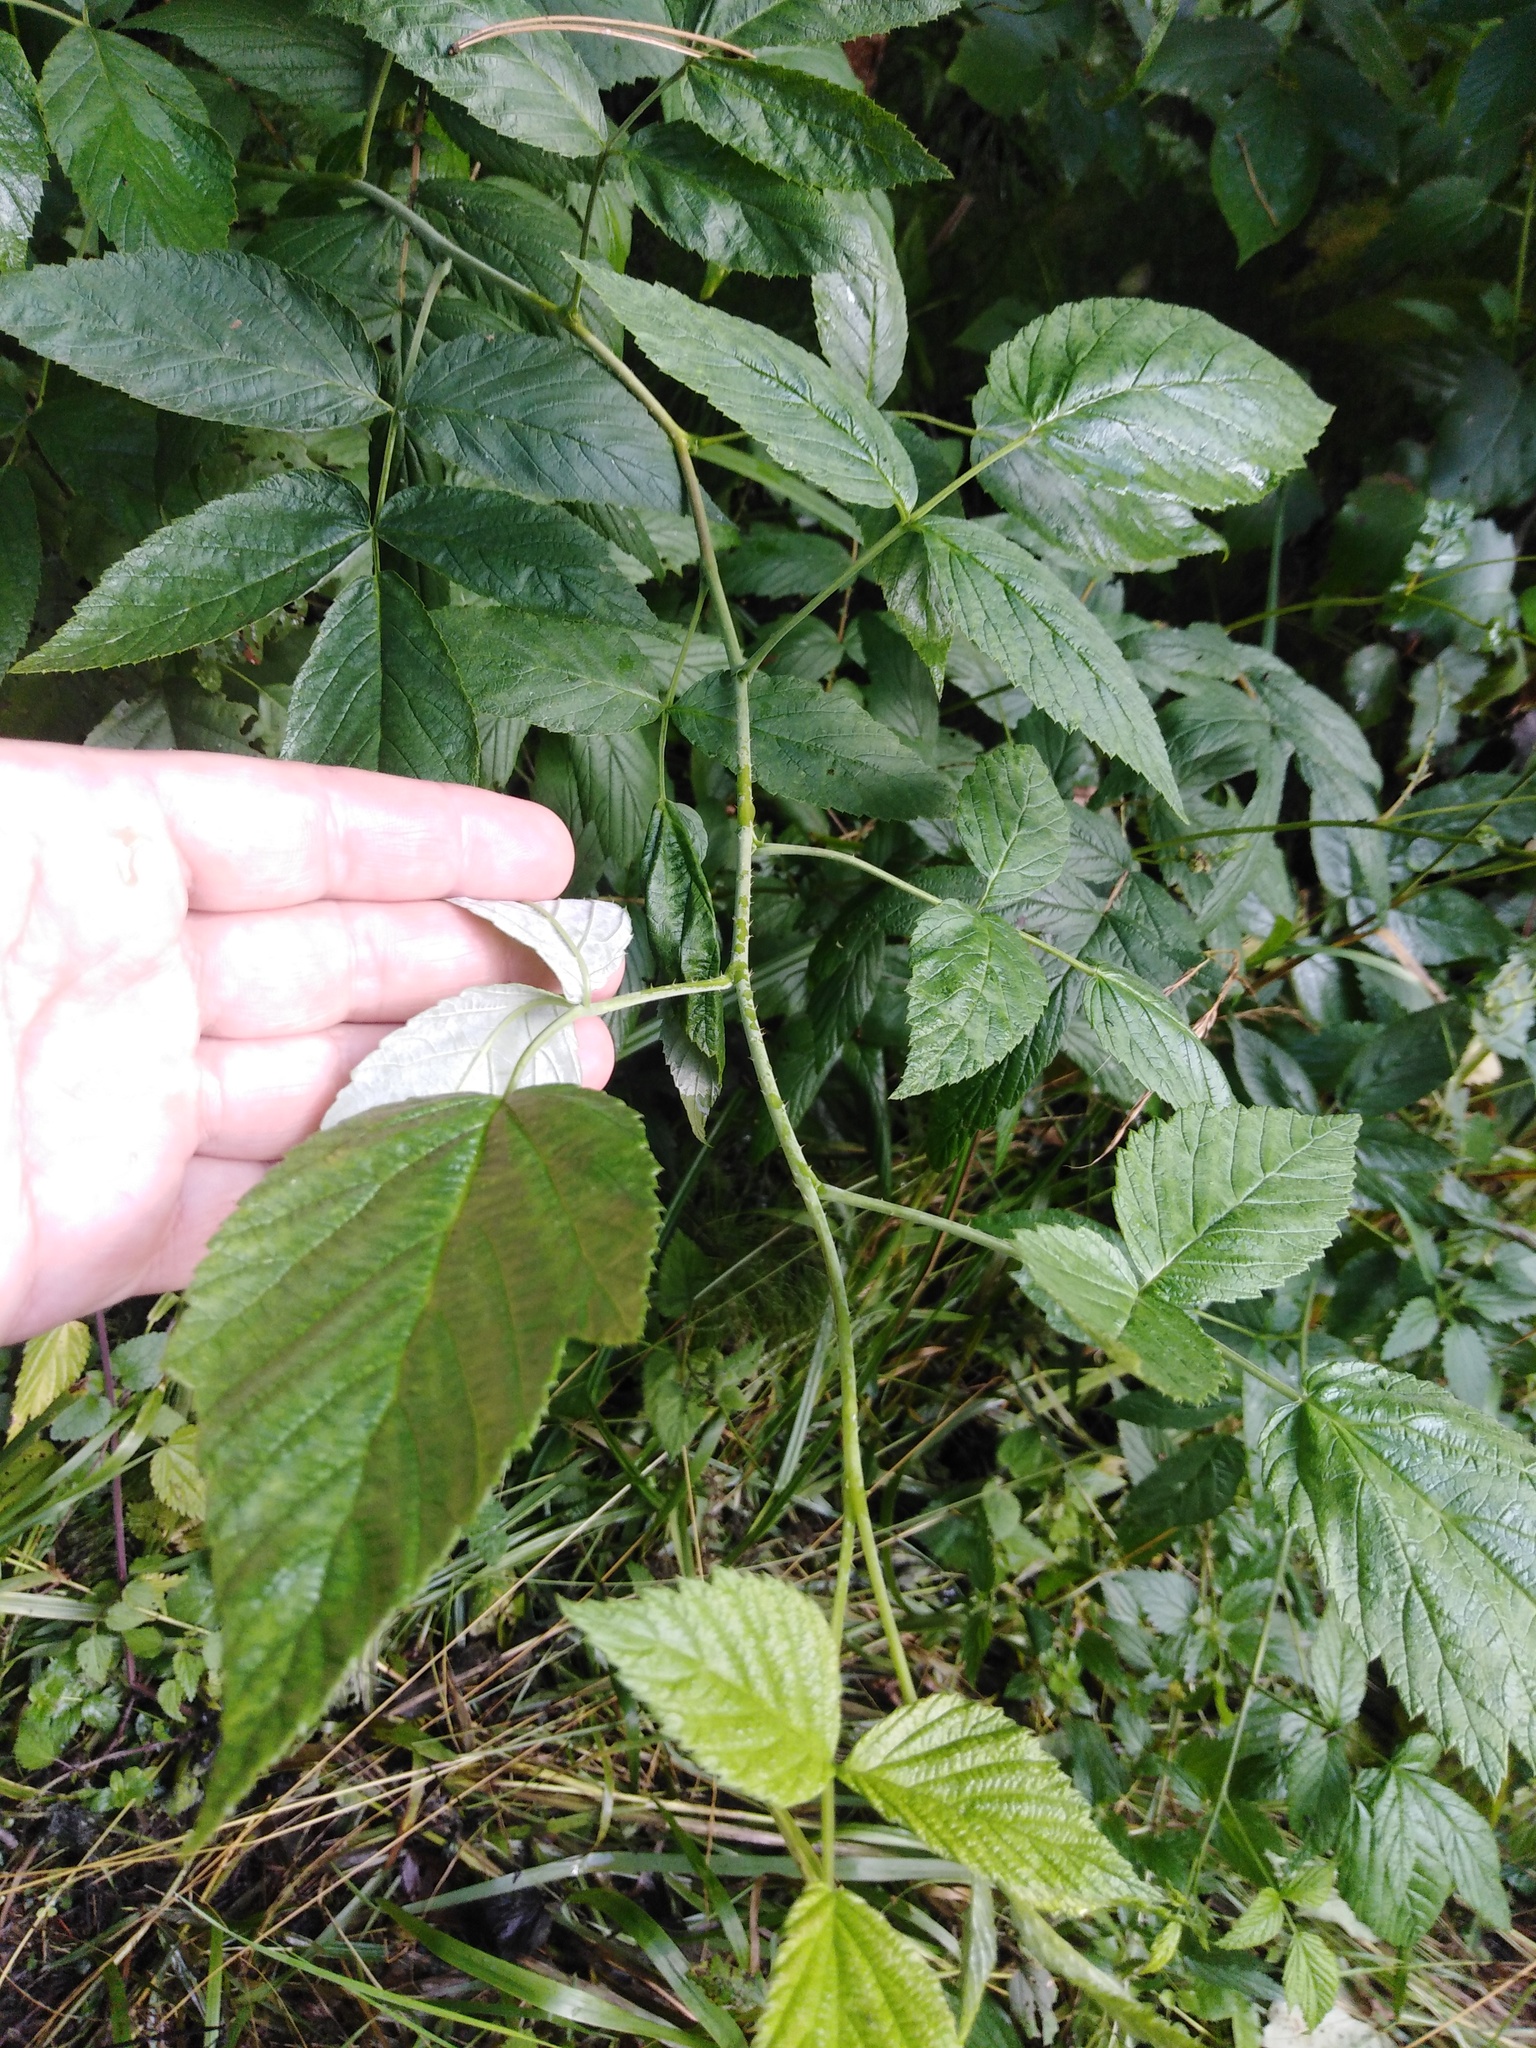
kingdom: Plantae
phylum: Tracheophyta
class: Magnoliopsida
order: Rosales
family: Rosaceae
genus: Rubus
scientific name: Rubus idaeus
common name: Raspberry
